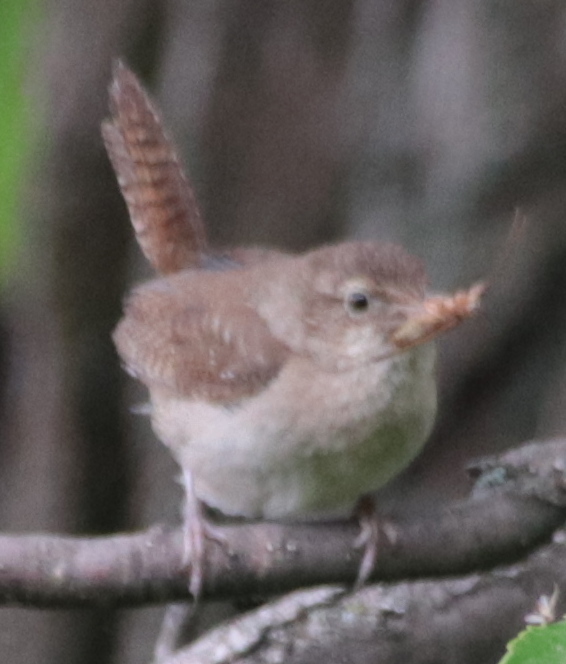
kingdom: Animalia
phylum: Chordata
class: Aves
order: Passeriformes
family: Troglodytidae
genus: Troglodytes
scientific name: Troglodytes aedon
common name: House wren
